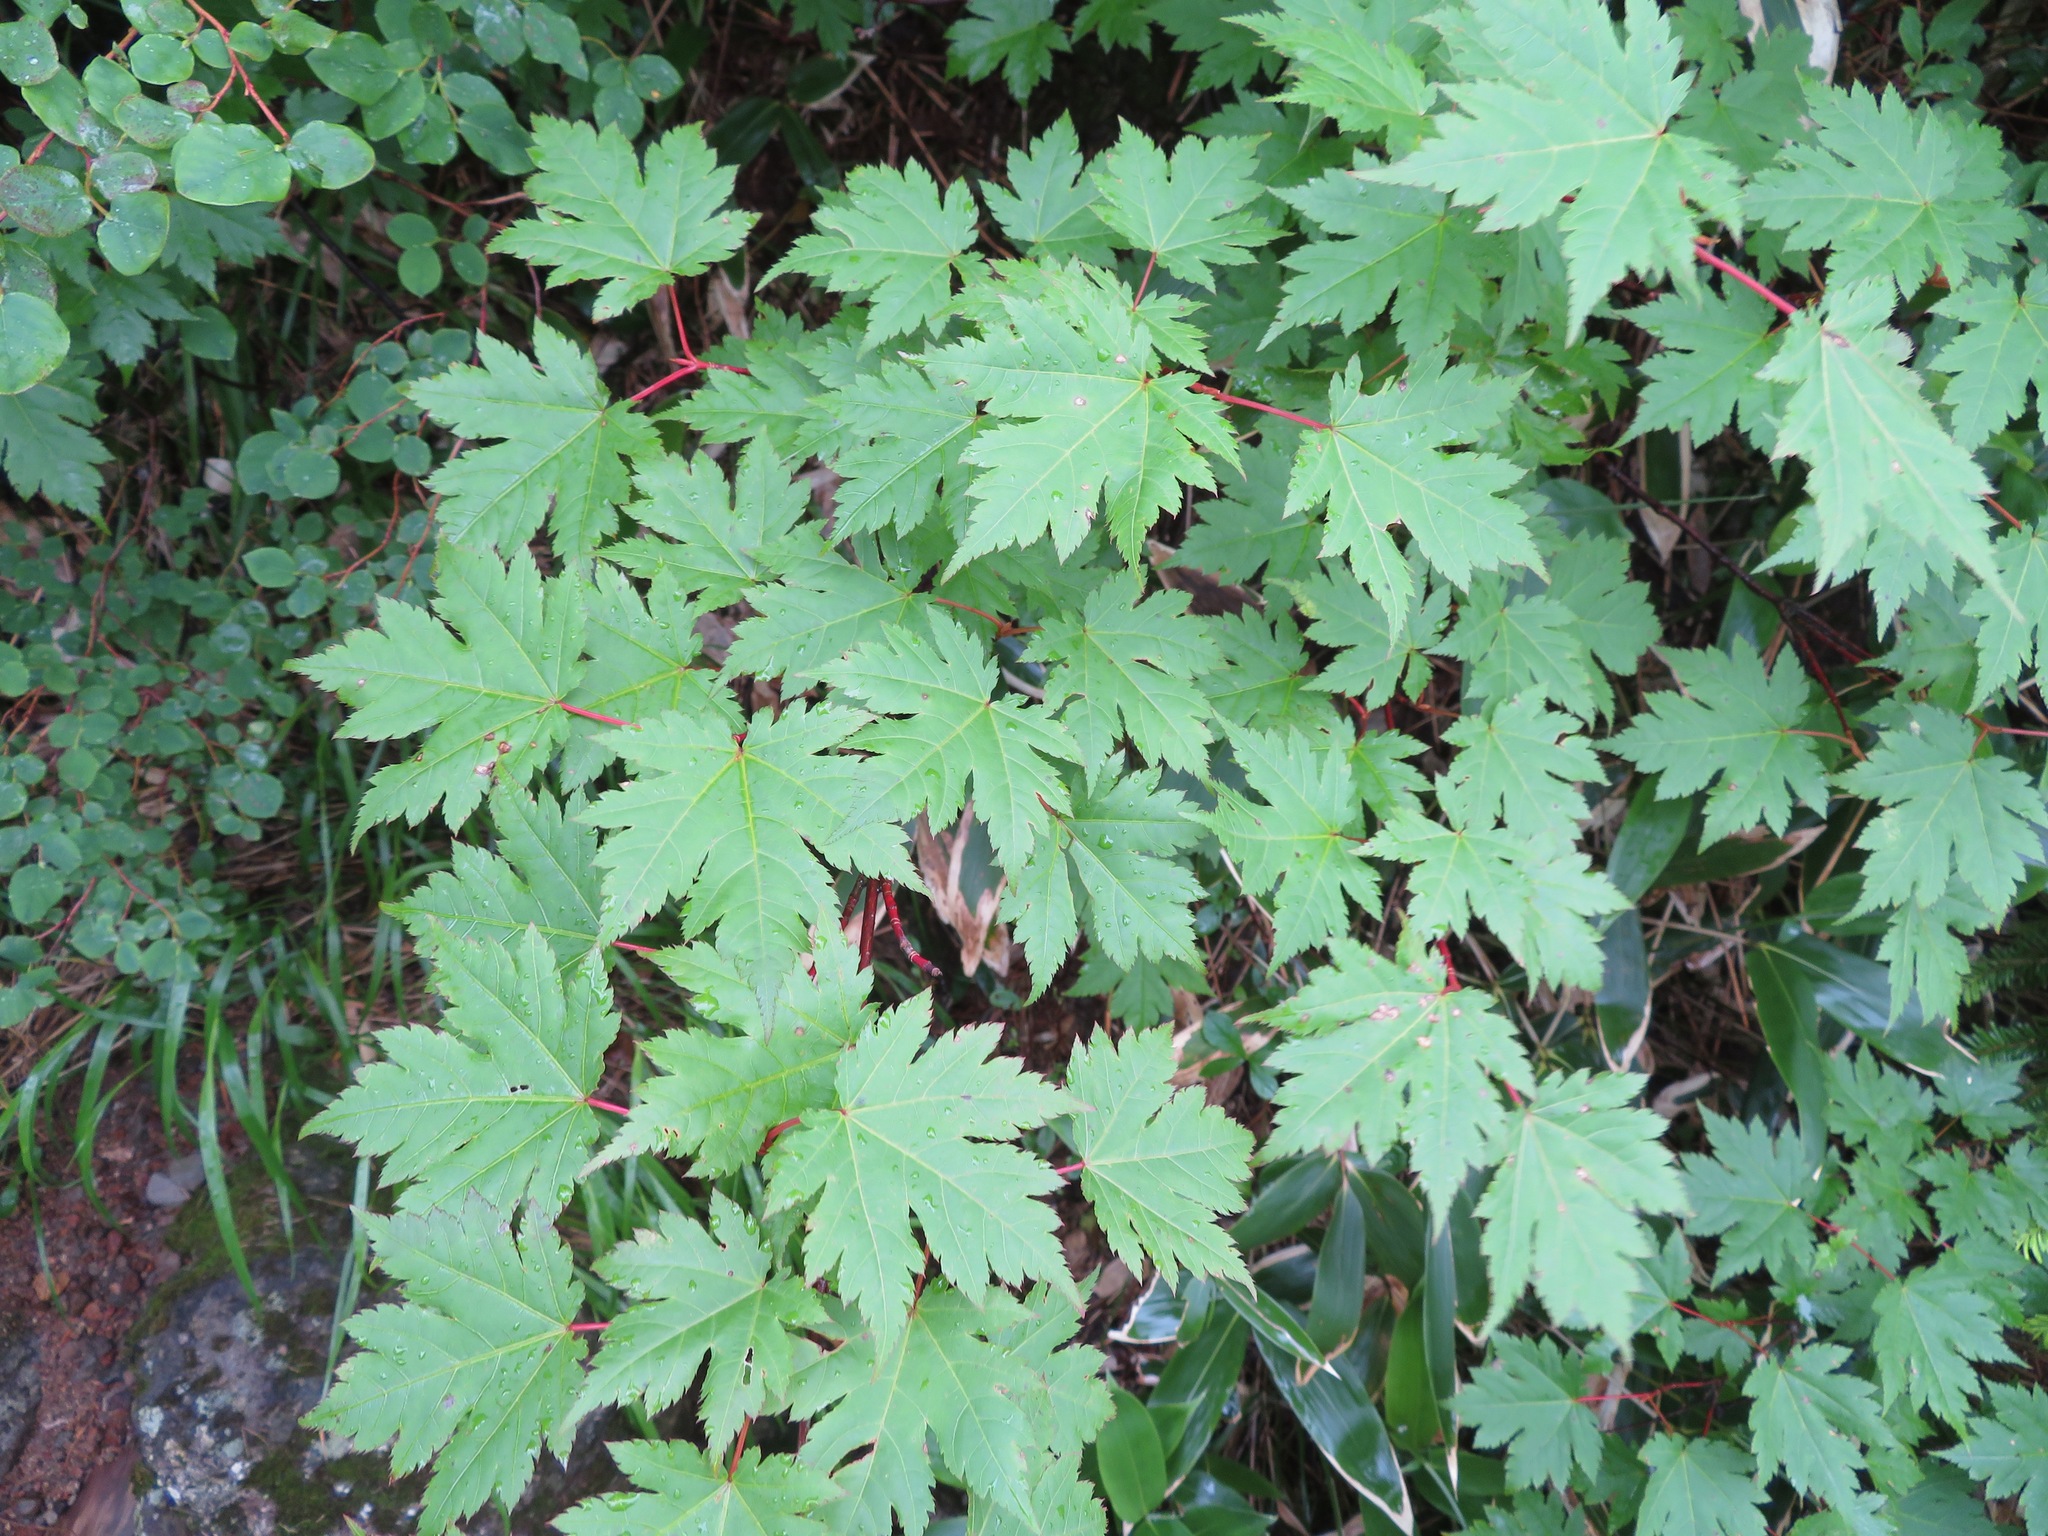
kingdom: Plantae
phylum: Tracheophyta
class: Magnoliopsida
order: Sapindales
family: Sapindaceae
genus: Acer
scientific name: Acer tschonoskii
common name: Tschonoski’s maple
